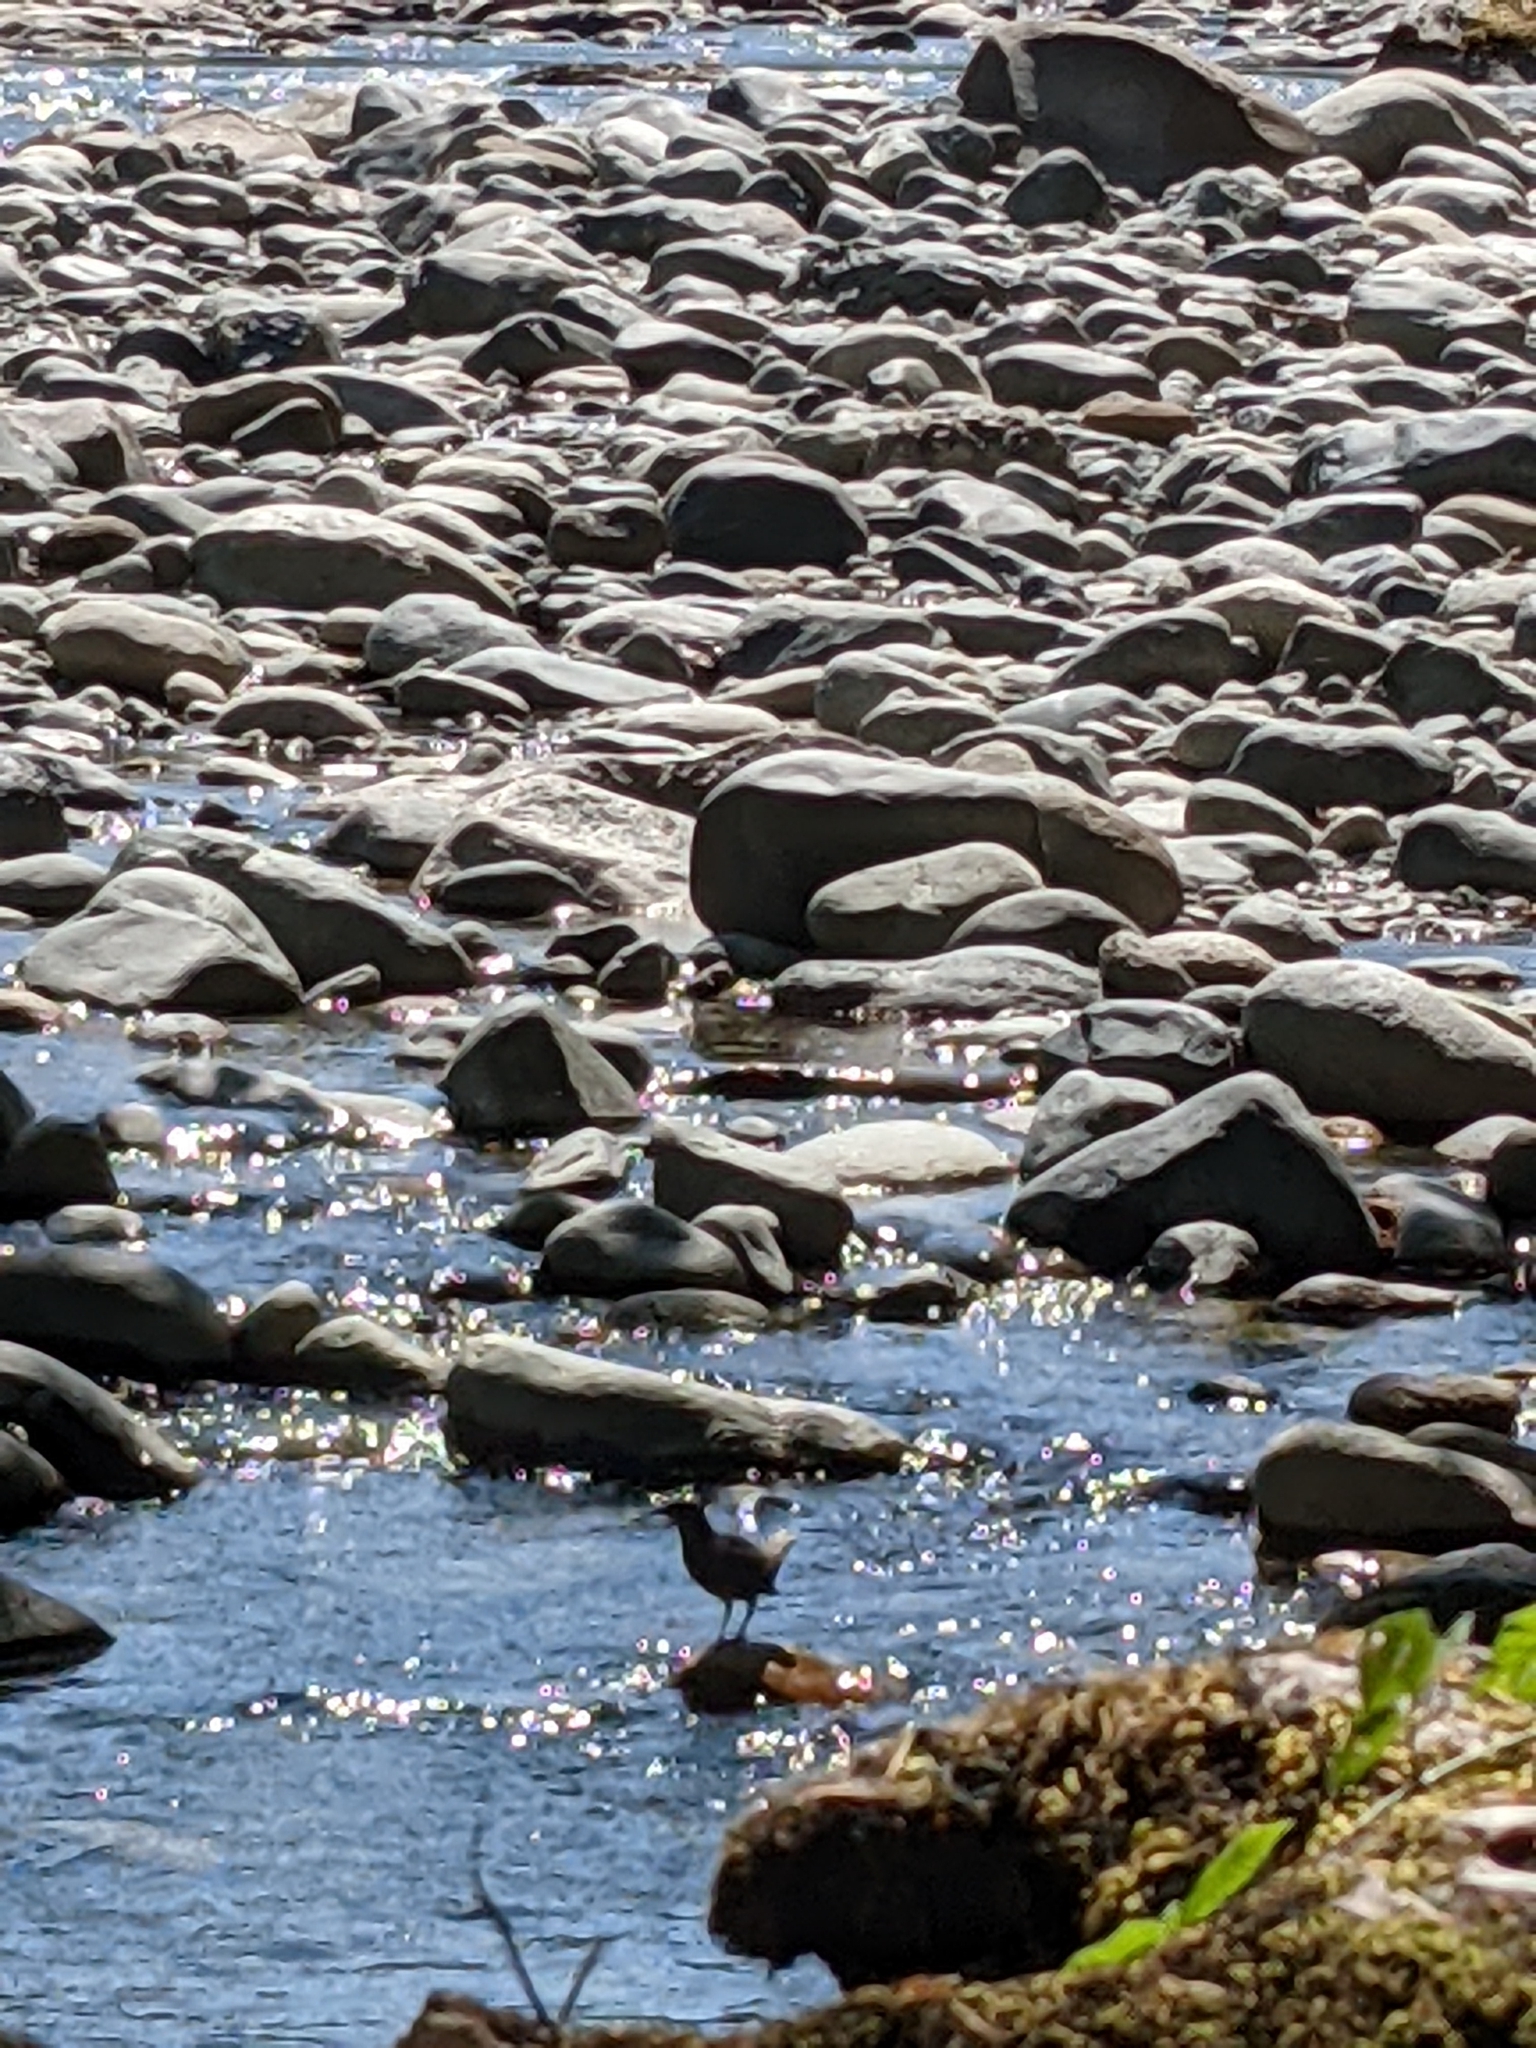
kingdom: Animalia
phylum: Chordata
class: Aves
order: Passeriformes
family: Cinclidae
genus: Cinclus
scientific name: Cinclus mexicanus
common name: American dipper
